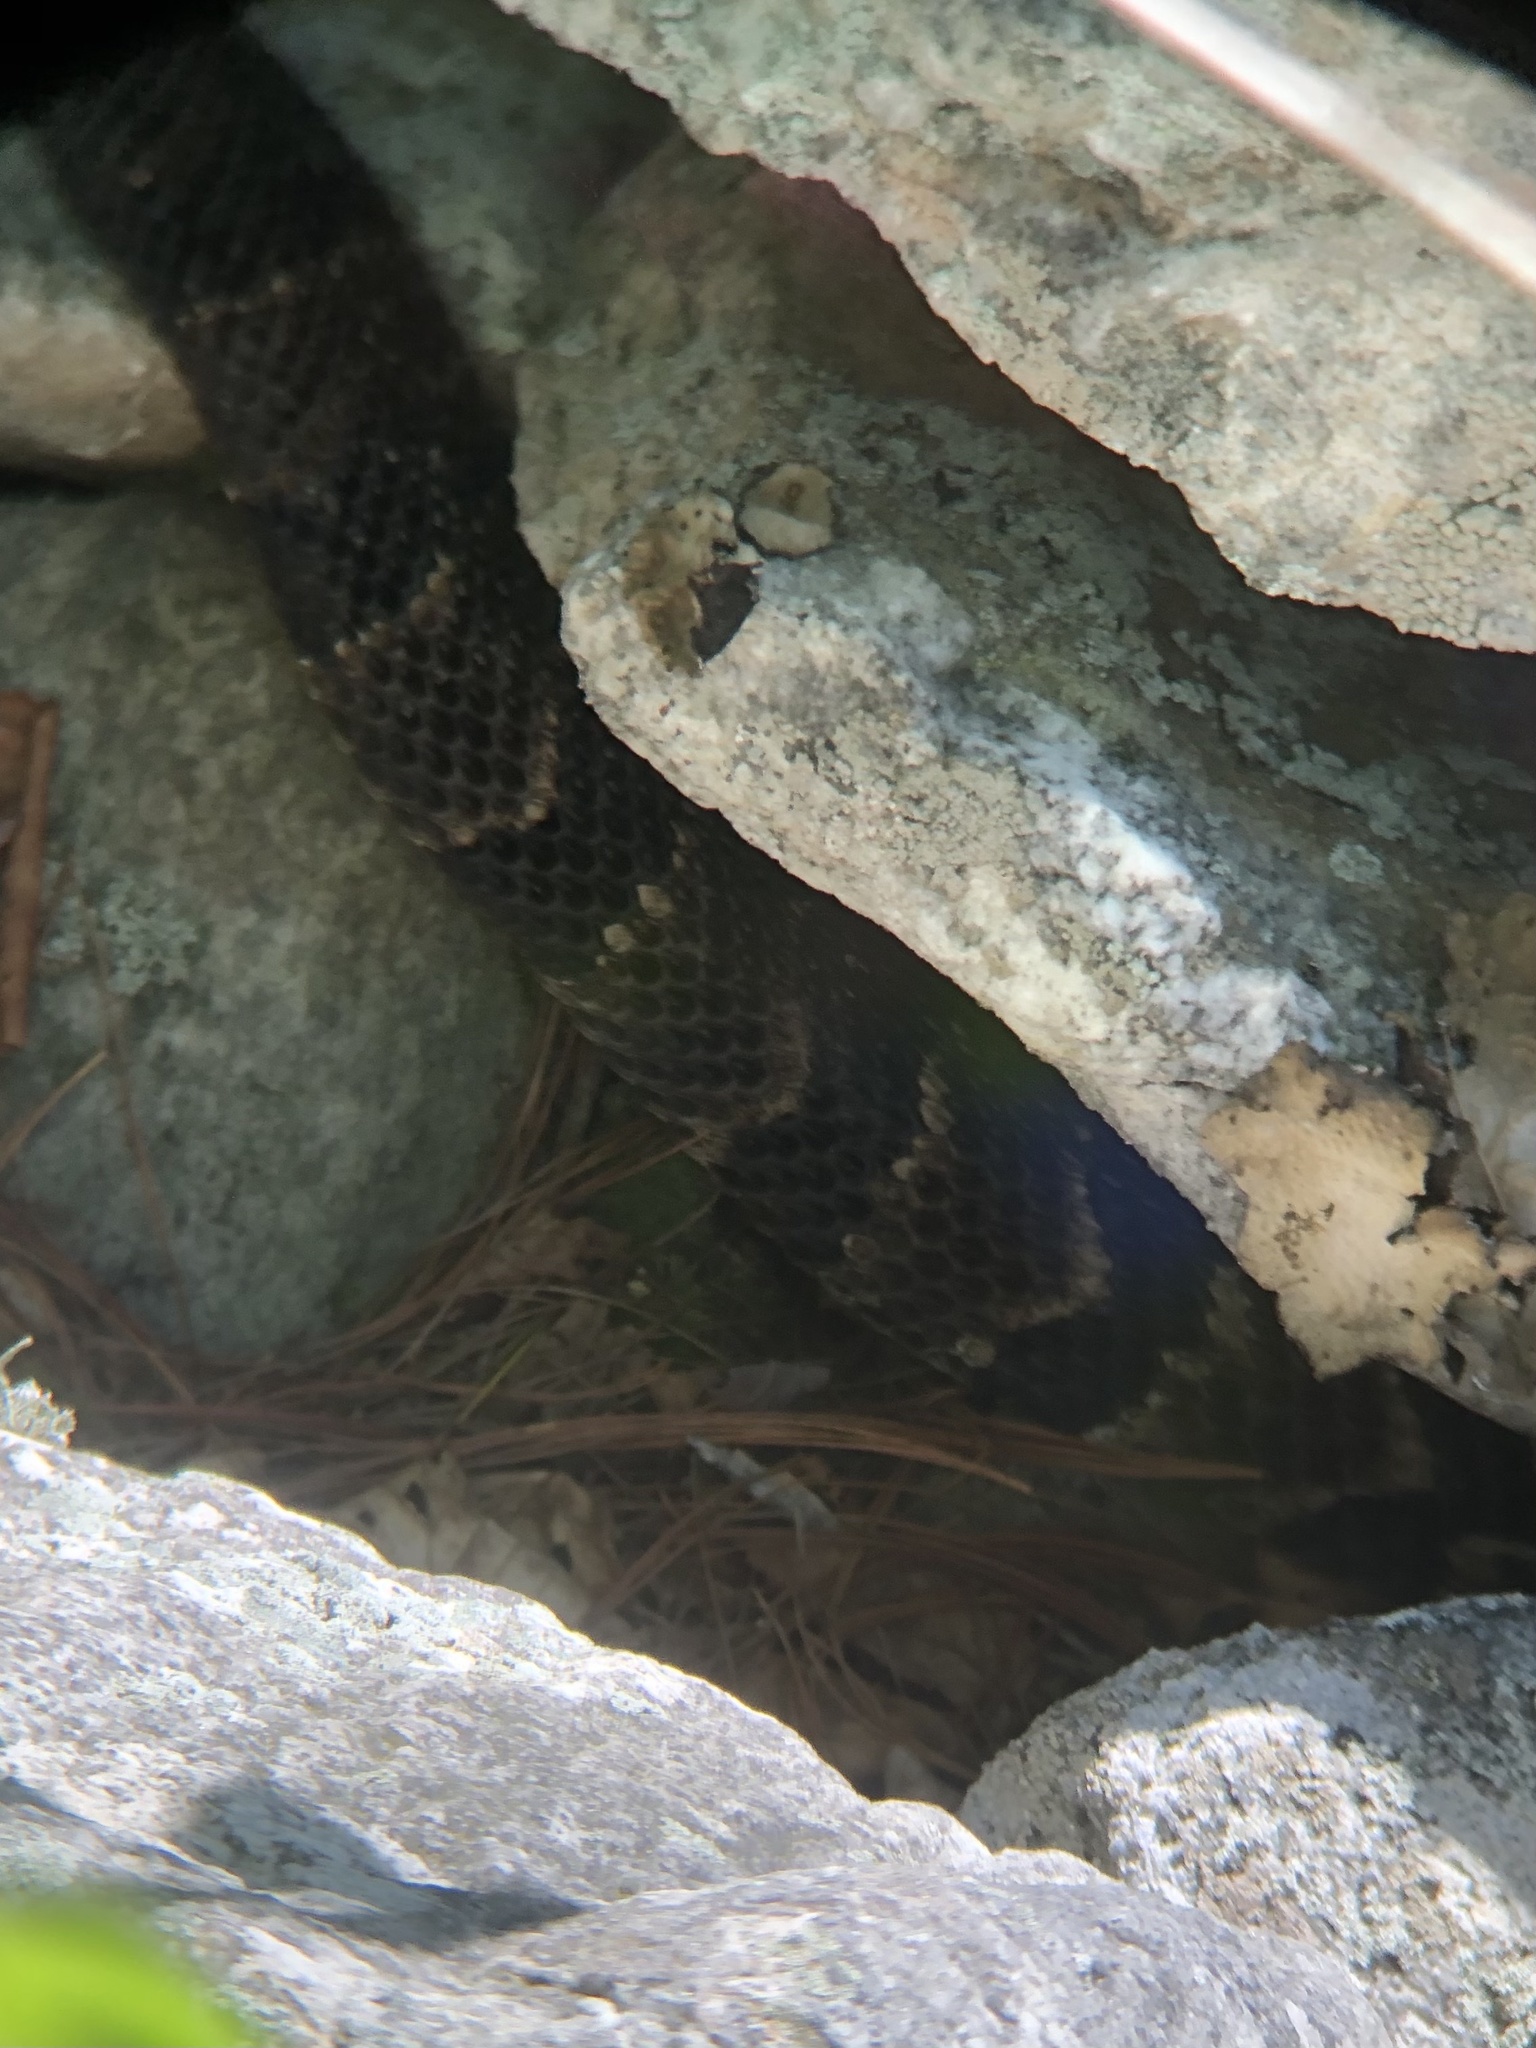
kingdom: Animalia
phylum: Chordata
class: Squamata
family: Viperidae
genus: Crotalus
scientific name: Crotalus horridus
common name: Timber rattlesnake
